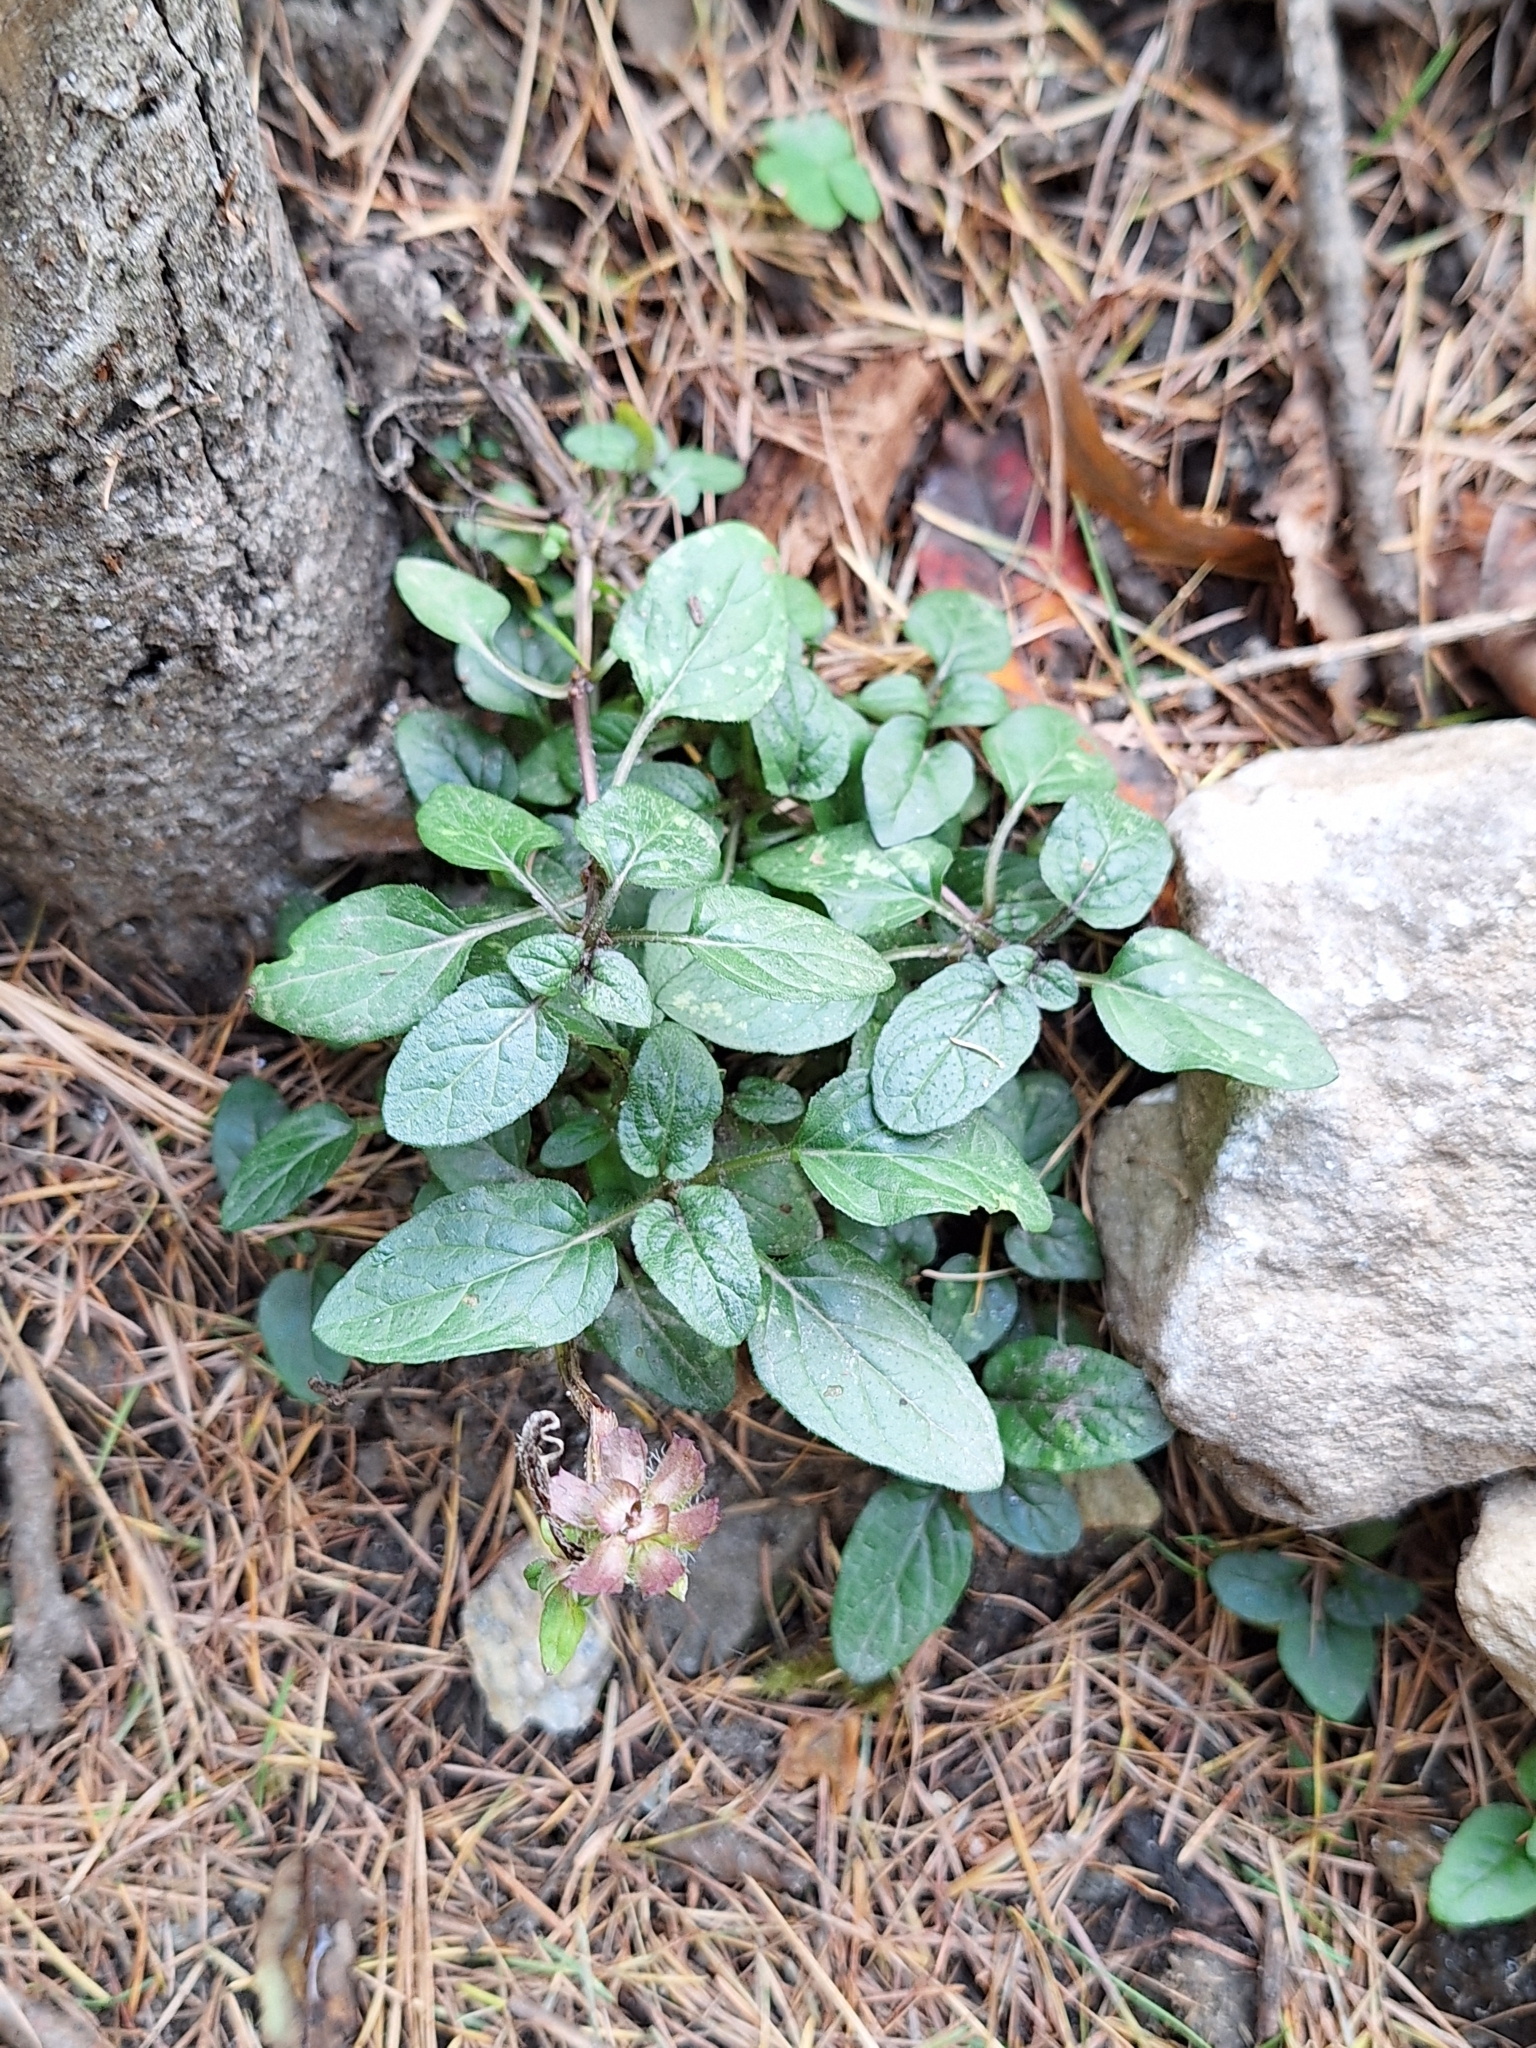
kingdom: Plantae
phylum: Tracheophyta
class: Magnoliopsida
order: Lamiales
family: Lamiaceae
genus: Prunella
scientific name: Prunella vulgaris
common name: Heal-all
